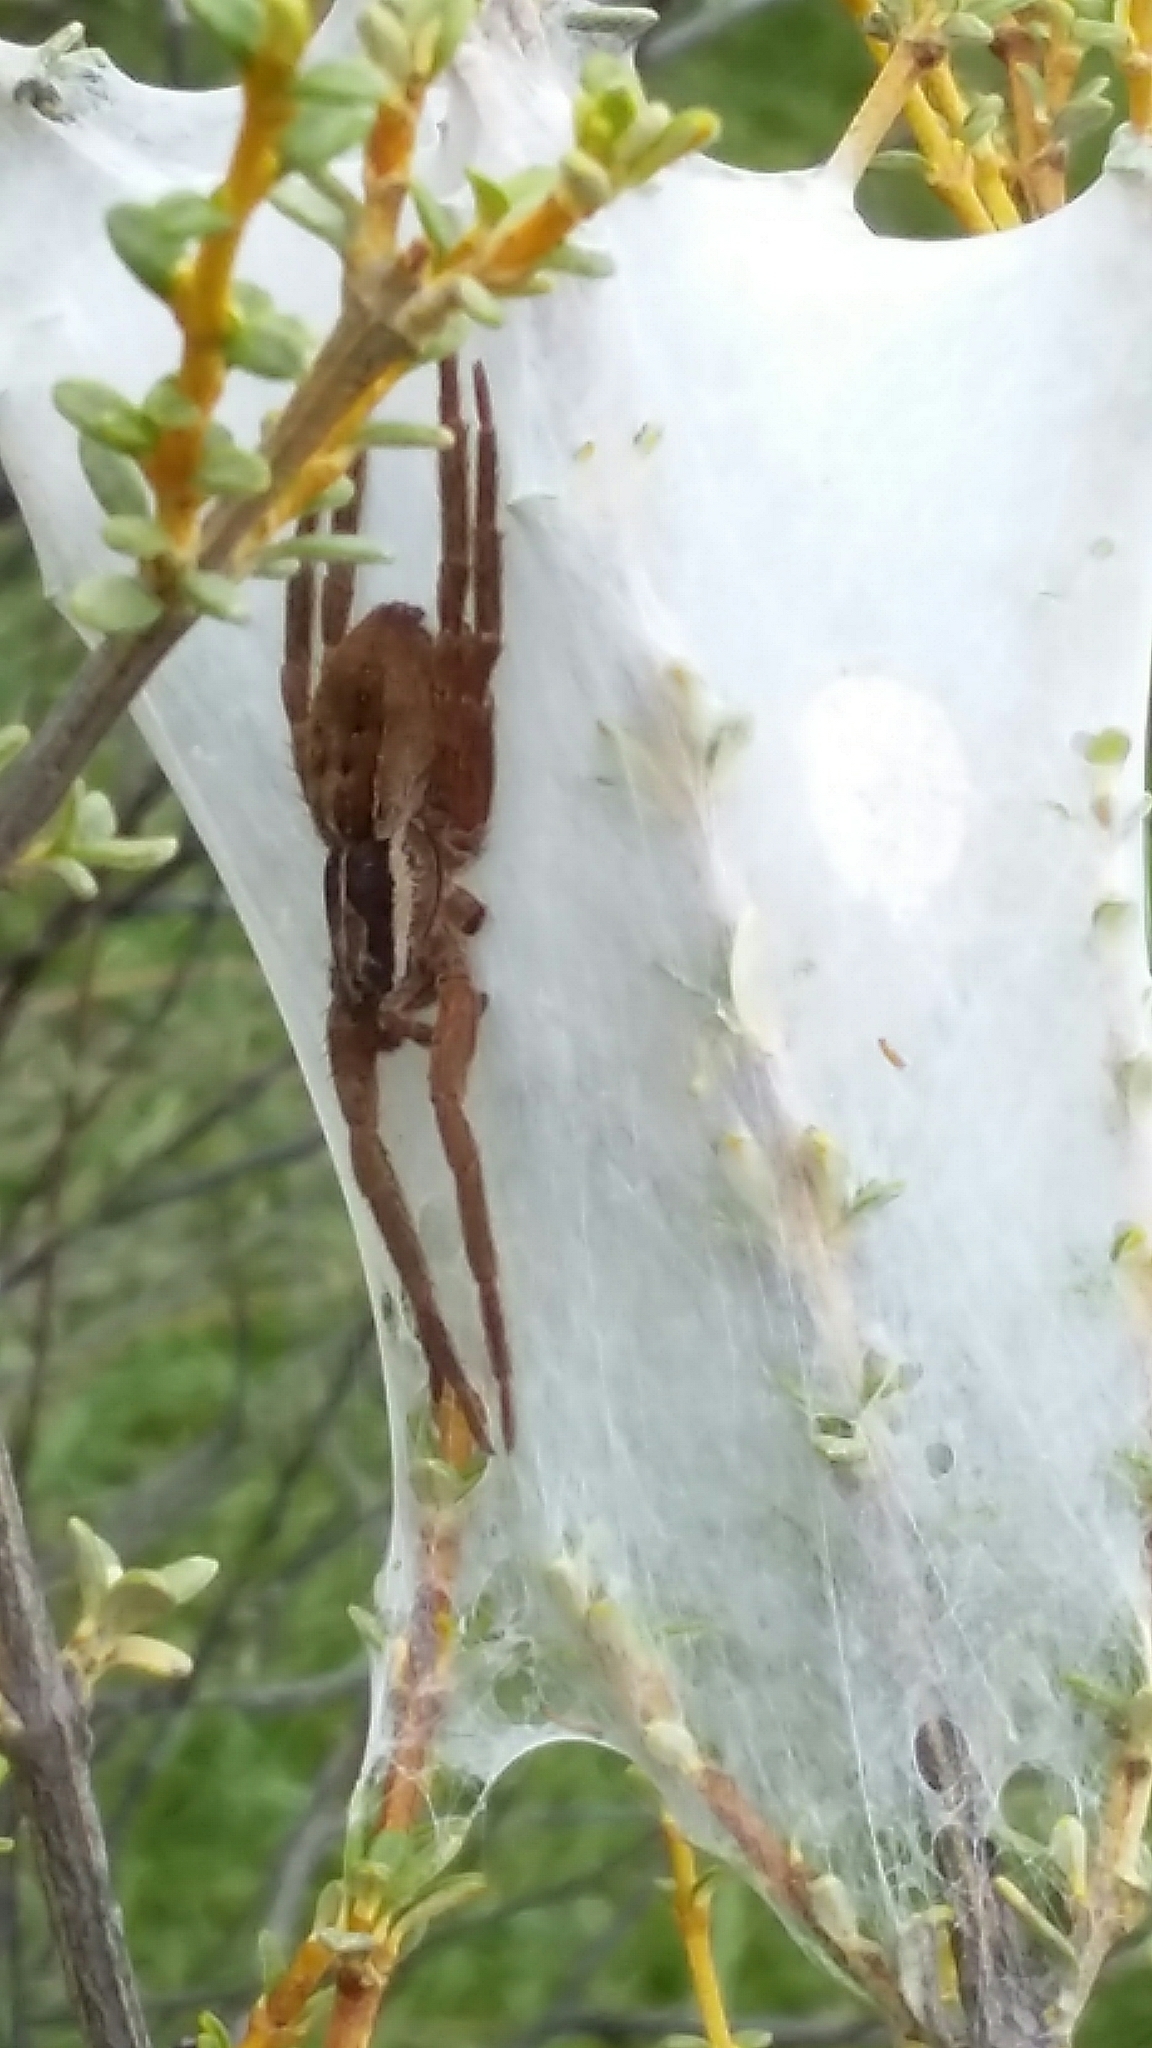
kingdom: Animalia
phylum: Arthropoda
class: Arachnida
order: Araneae
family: Pisauridae
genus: Dolomedes
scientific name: Dolomedes minor
